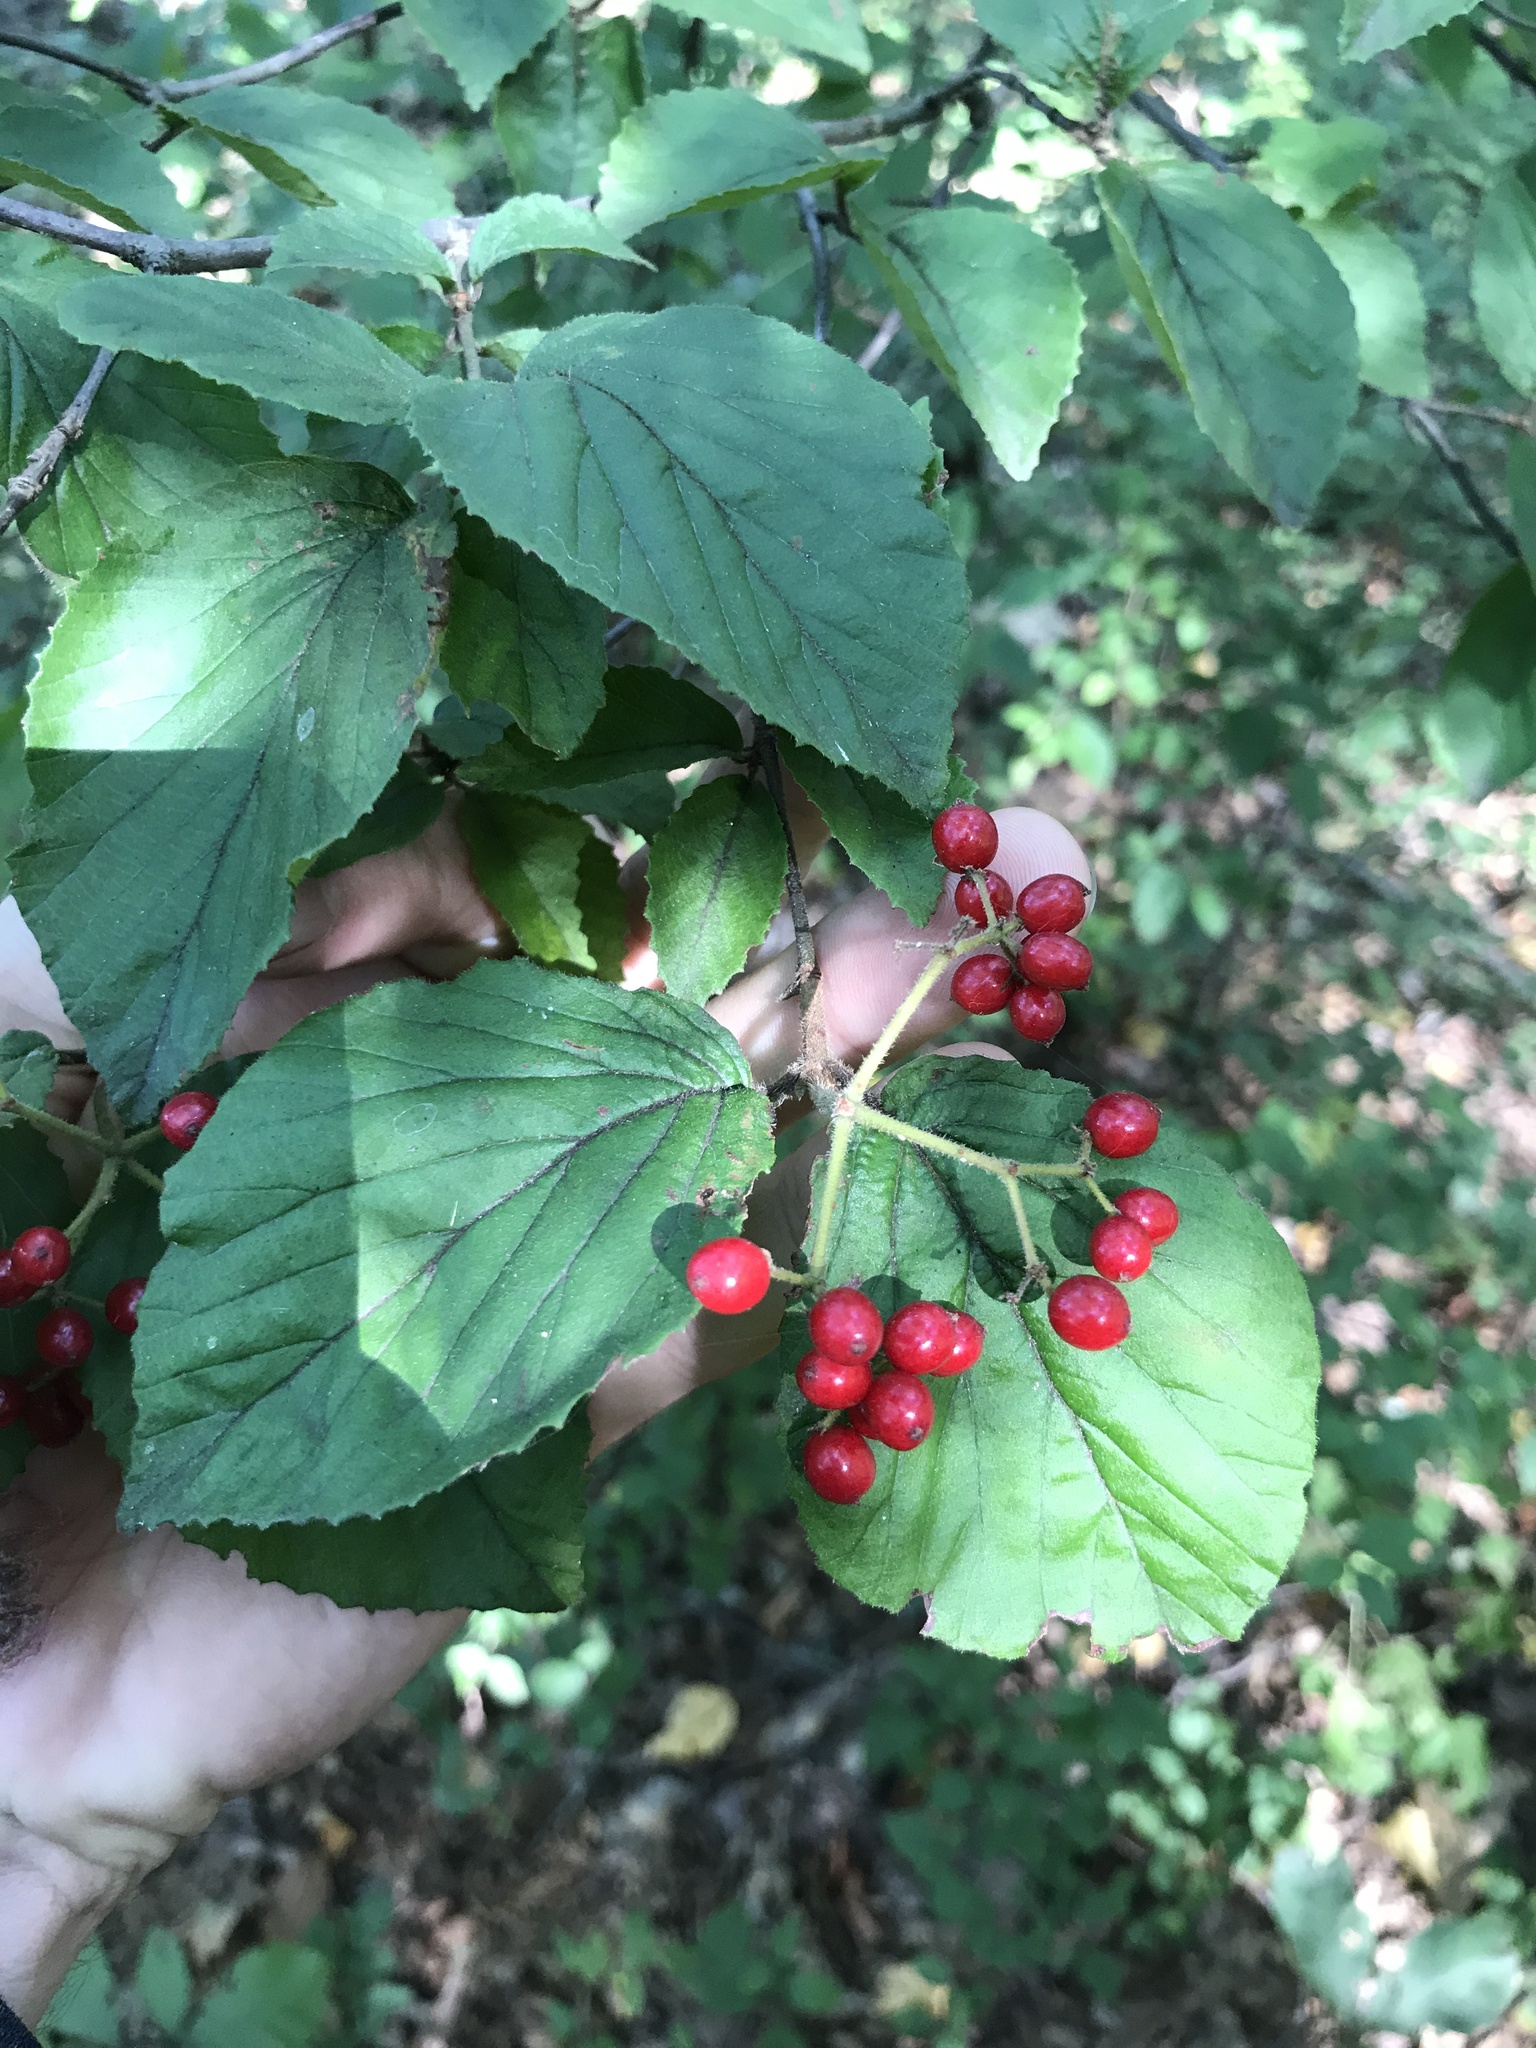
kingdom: Plantae
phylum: Tracheophyta
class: Magnoliopsida
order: Dipsacales
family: Viburnaceae
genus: Viburnum
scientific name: Viburnum dilatatum
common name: Linden arrowwood
